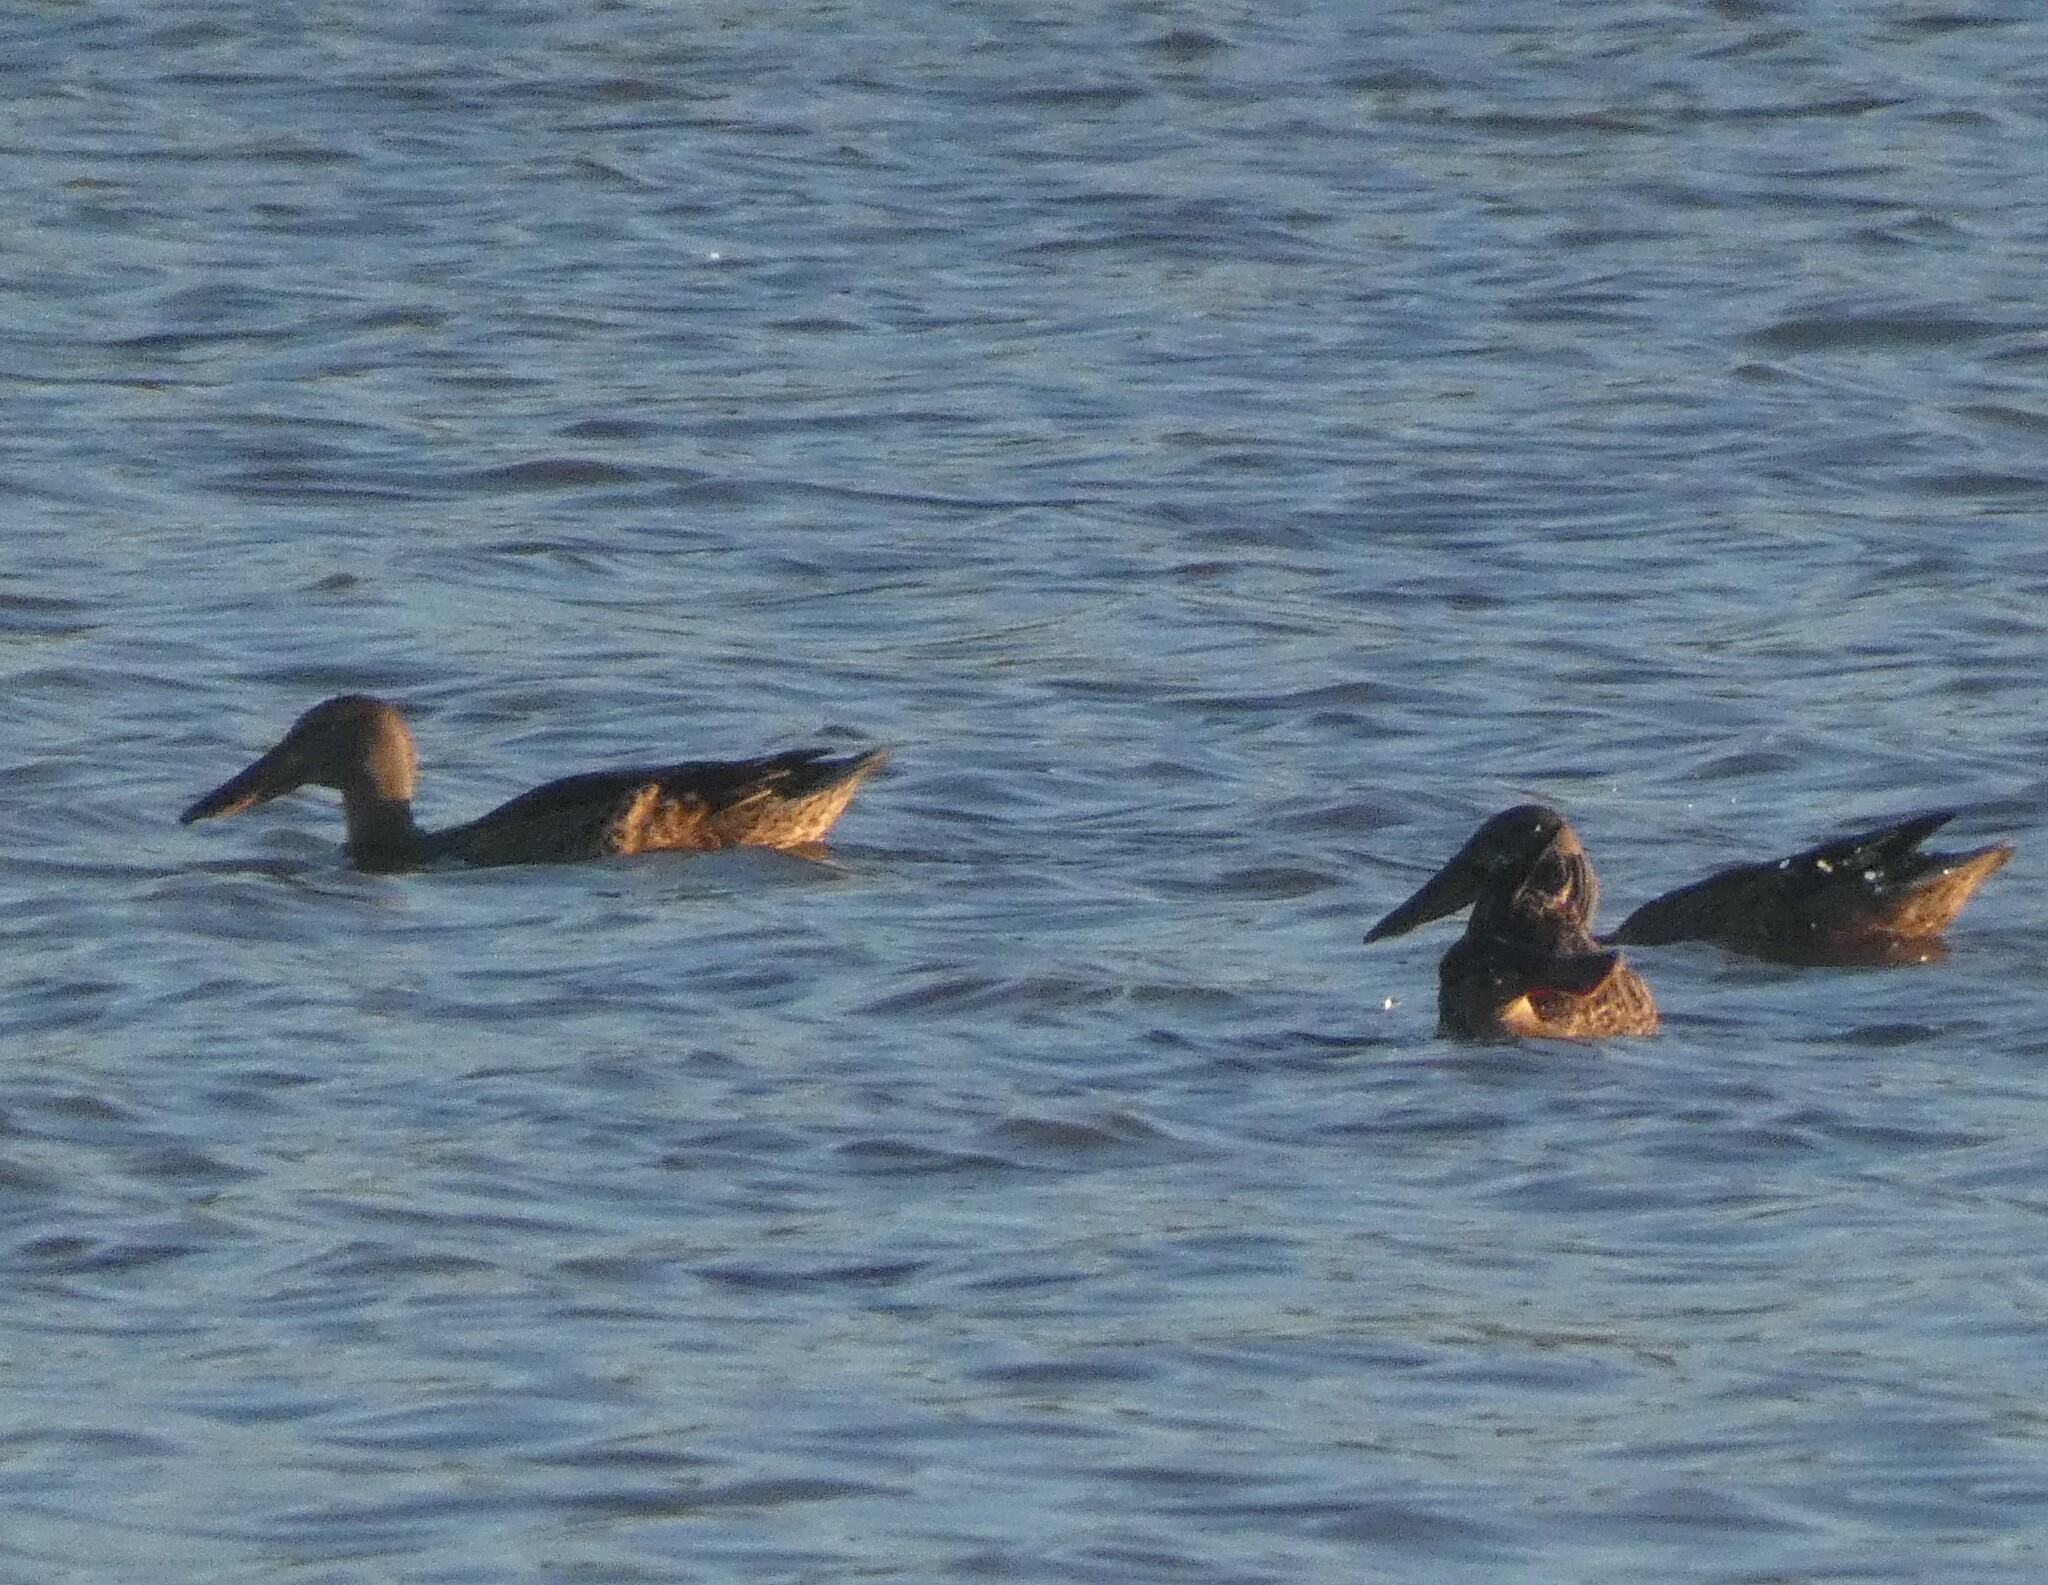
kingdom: Animalia
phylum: Chordata
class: Aves
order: Anseriformes
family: Anatidae
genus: Spatula
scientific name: Spatula clypeata
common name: Northern shoveler
